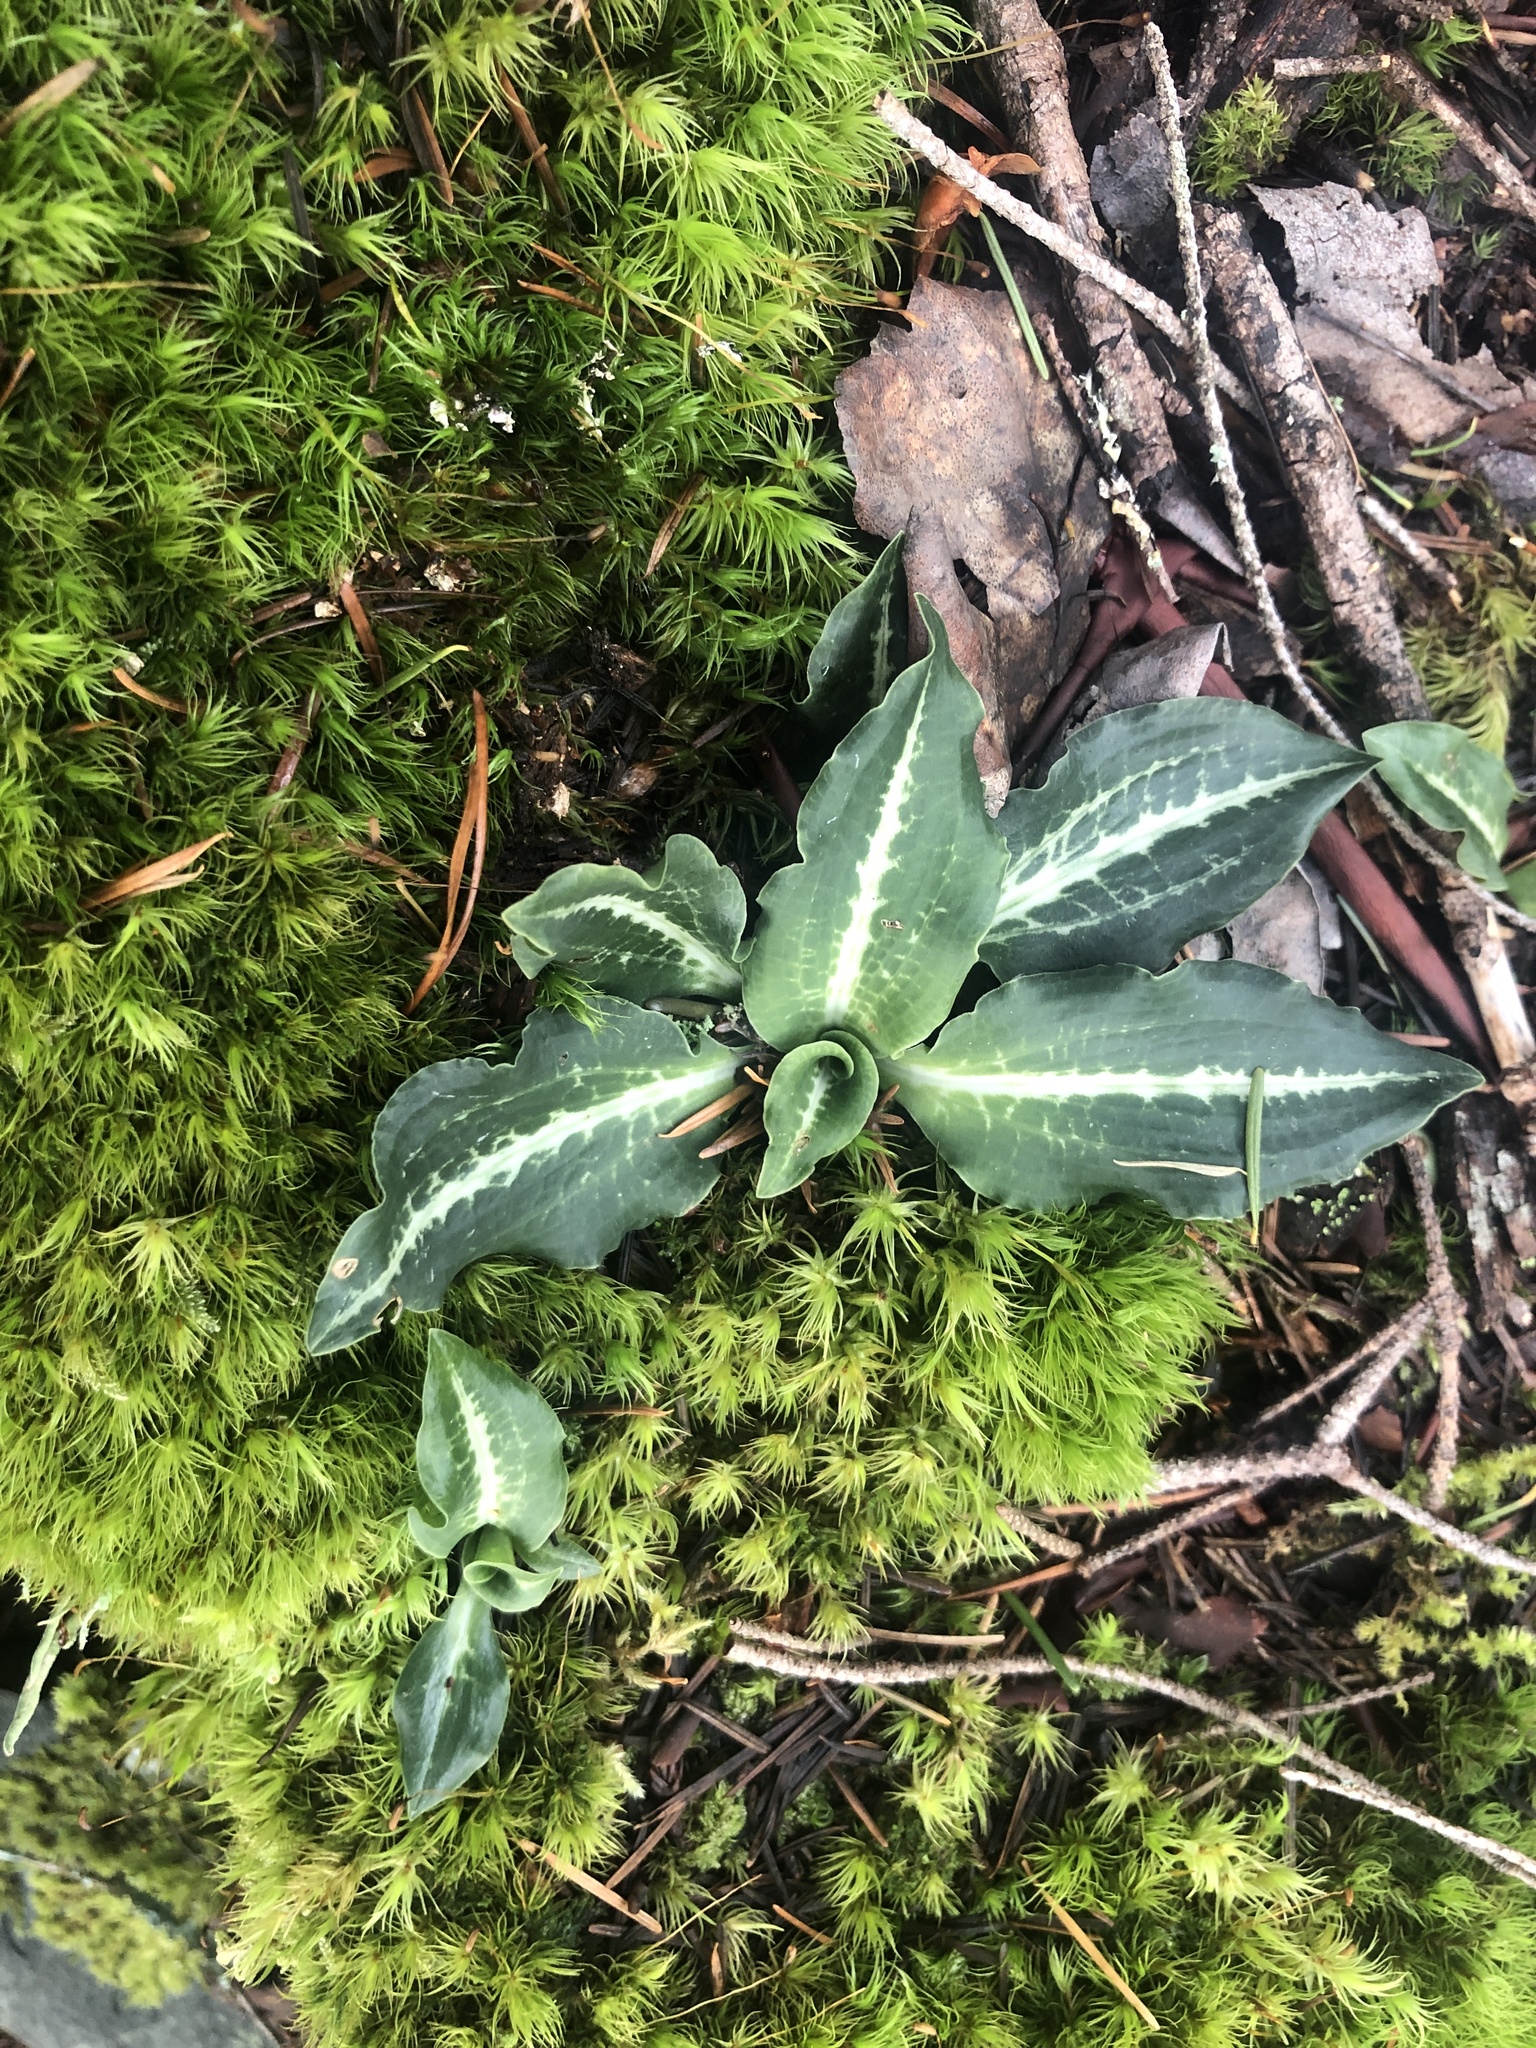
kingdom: Plantae
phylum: Tracheophyta
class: Liliopsida
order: Asparagales
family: Orchidaceae
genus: Goodyera
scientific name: Goodyera oblongifolia
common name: Giant rattlesnake-plantain
